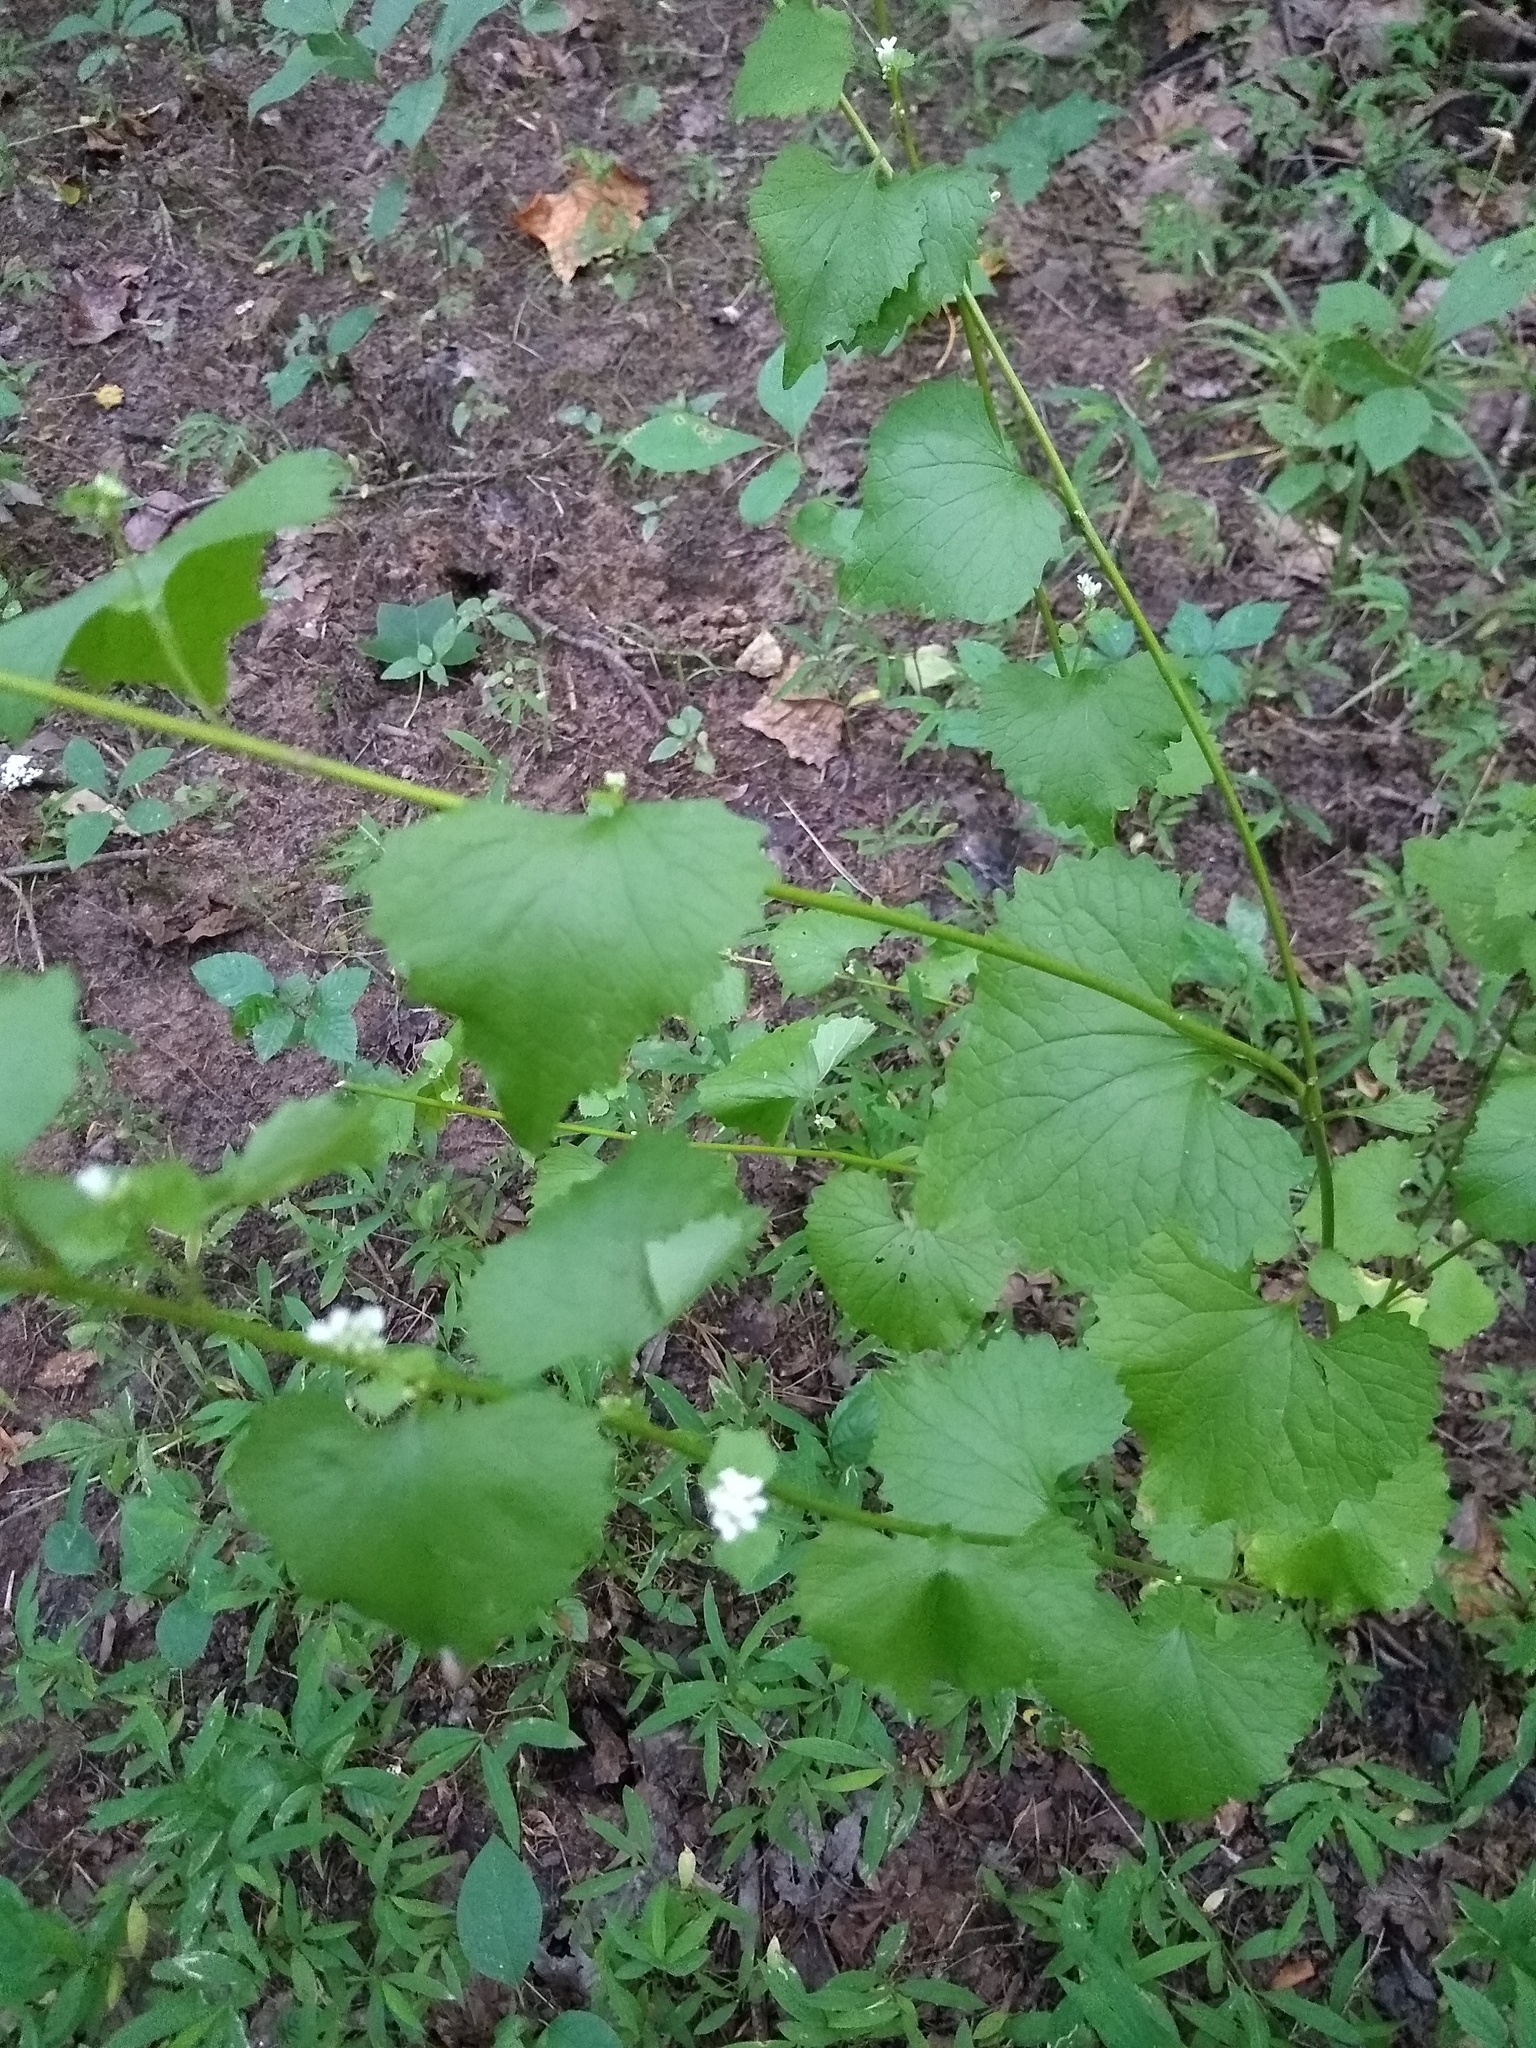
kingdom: Plantae
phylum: Tracheophyta
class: Magnoliopsida
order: Brassicales
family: Brassicaceae
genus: Alliaria
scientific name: Alliaria petiolata
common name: Garlic mustard
